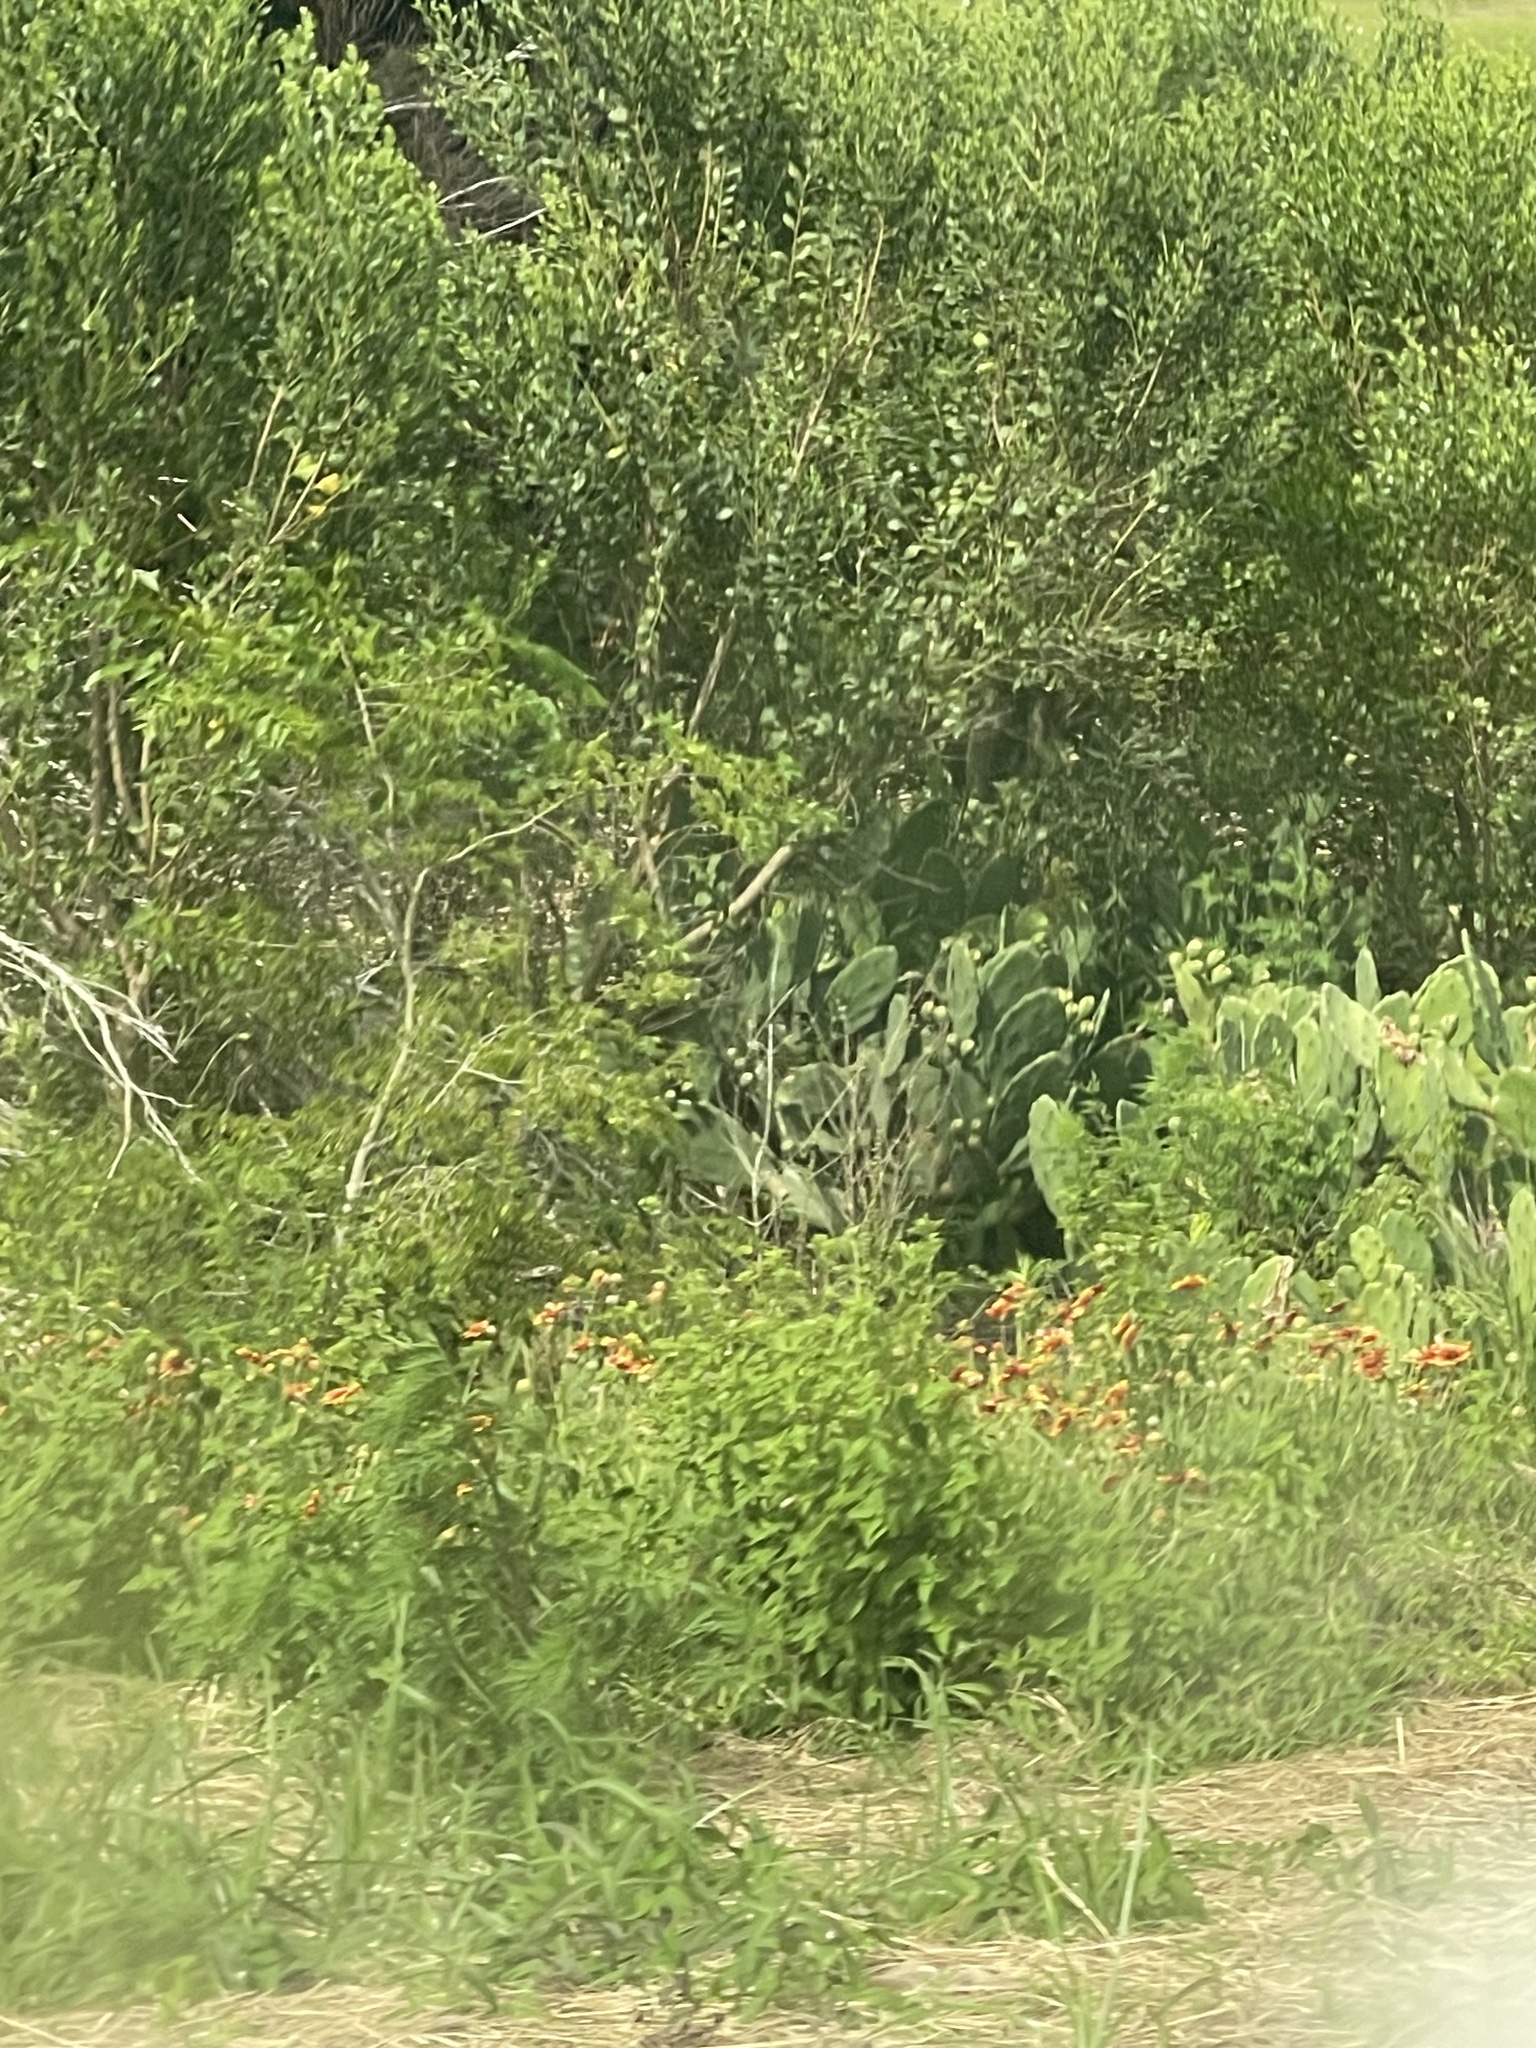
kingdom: Plantae
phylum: Tracheophyta
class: Magnoliopsida
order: Caryophyllales
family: Cactaceae
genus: Opuntia
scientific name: Opuntia stricta
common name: Erect pricklypear
